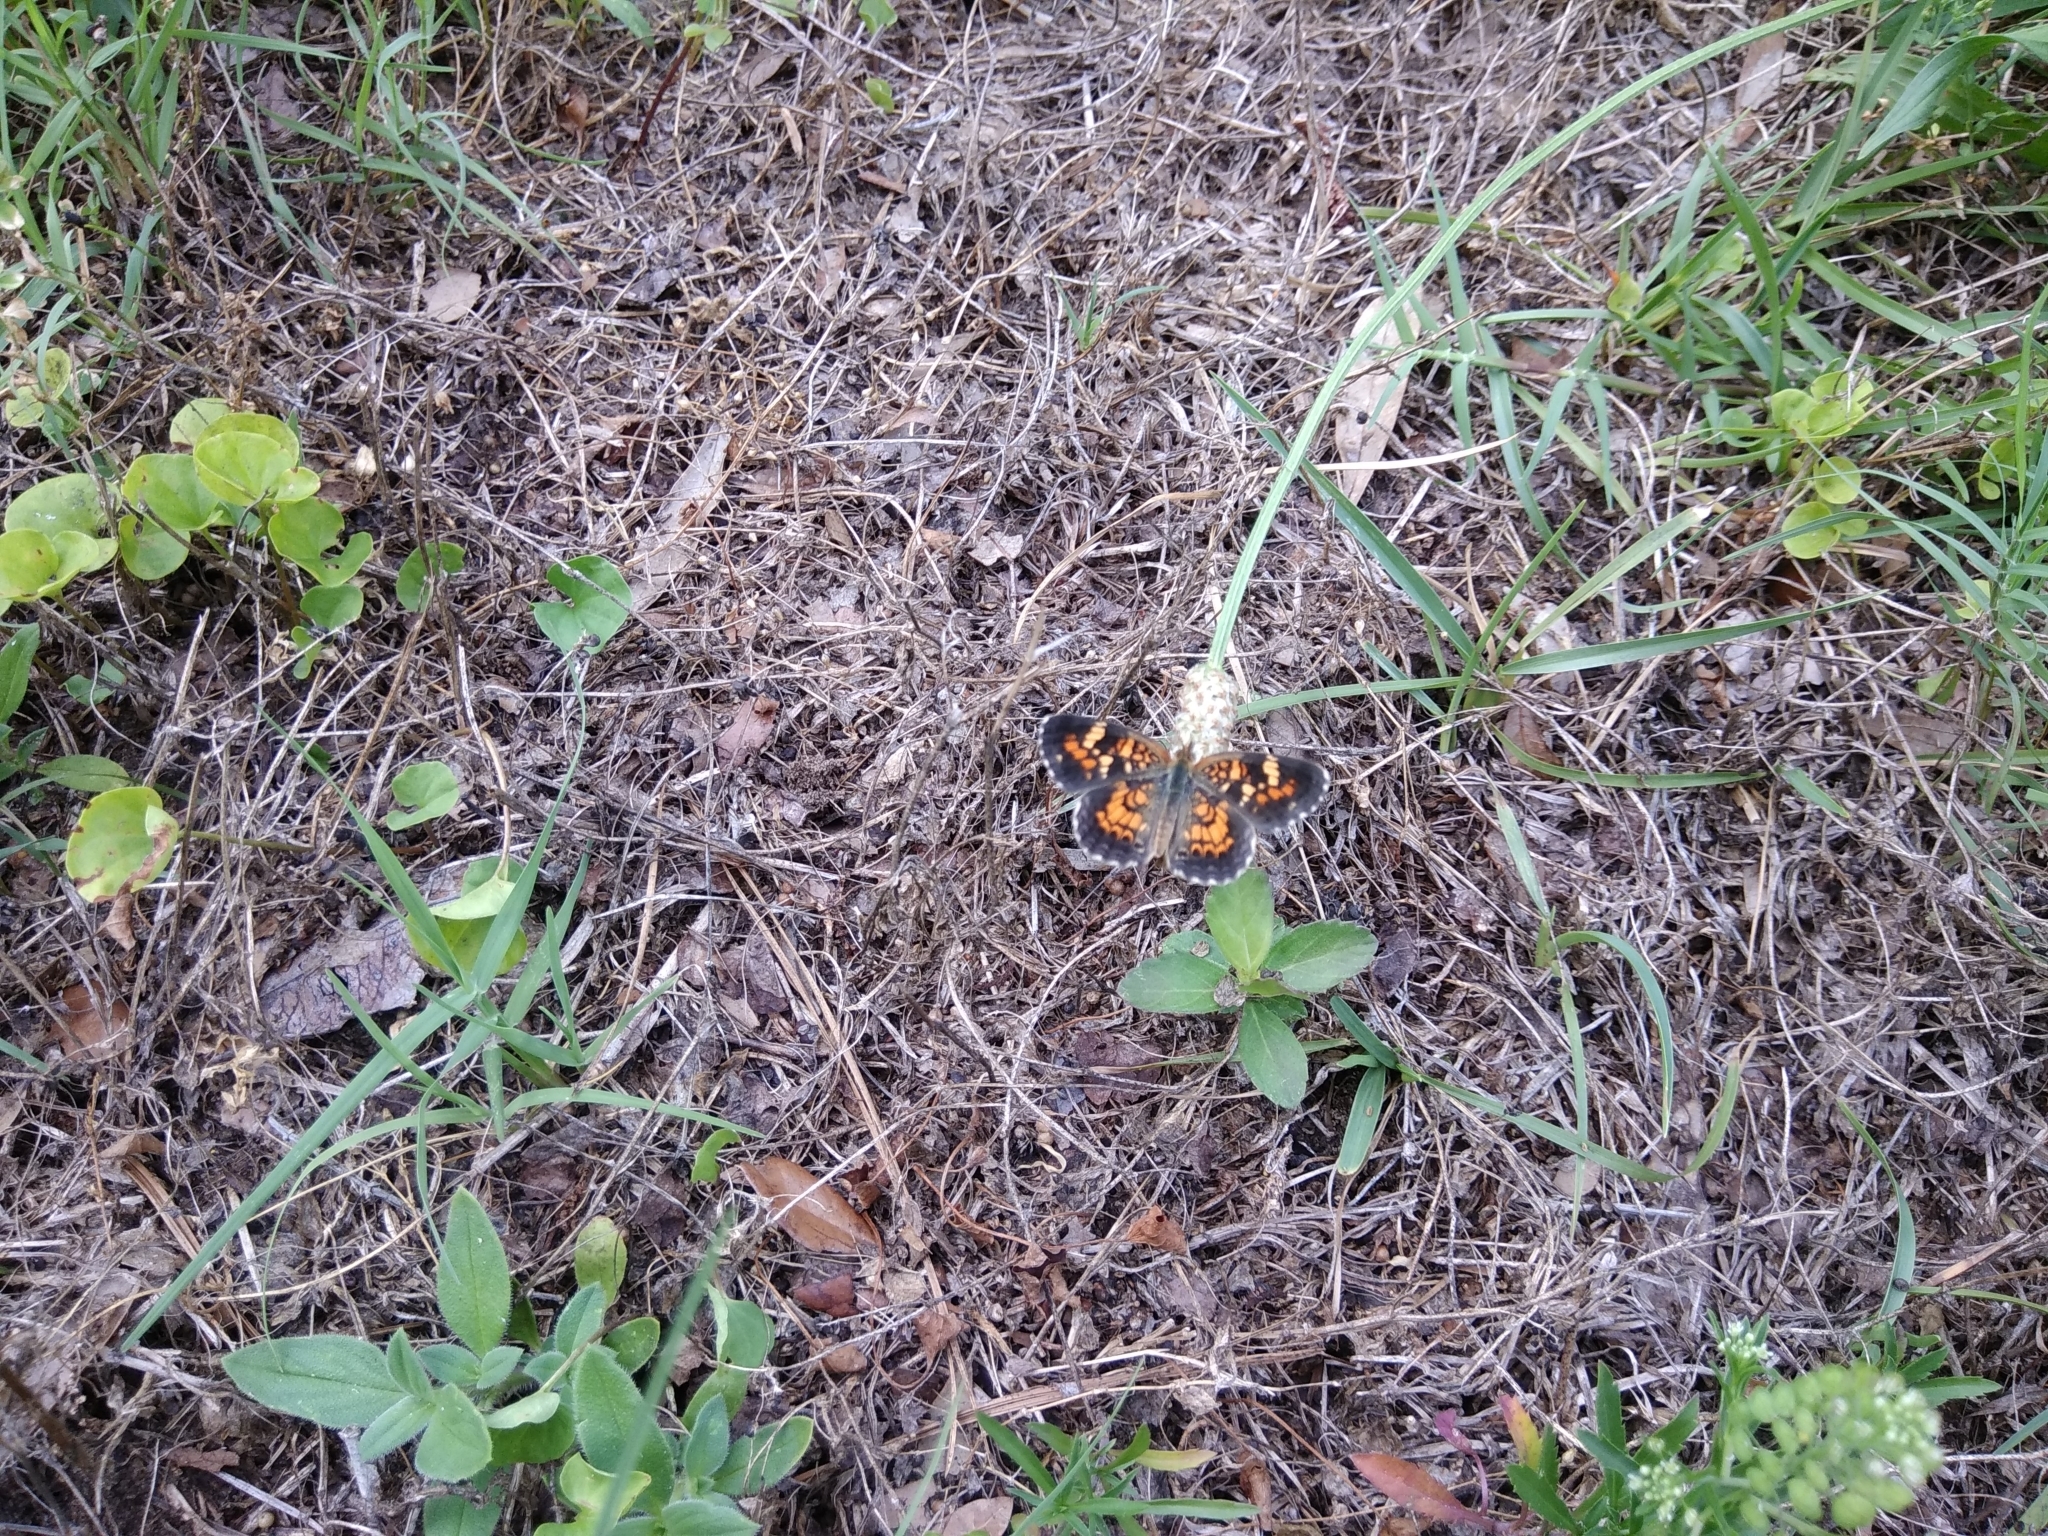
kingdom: Animalia
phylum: Arthropoda
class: Insecta
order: Lepidoptera
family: Nymphalidae
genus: Phyciodes
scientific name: Phyciodes phaon
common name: Phaon crescent
